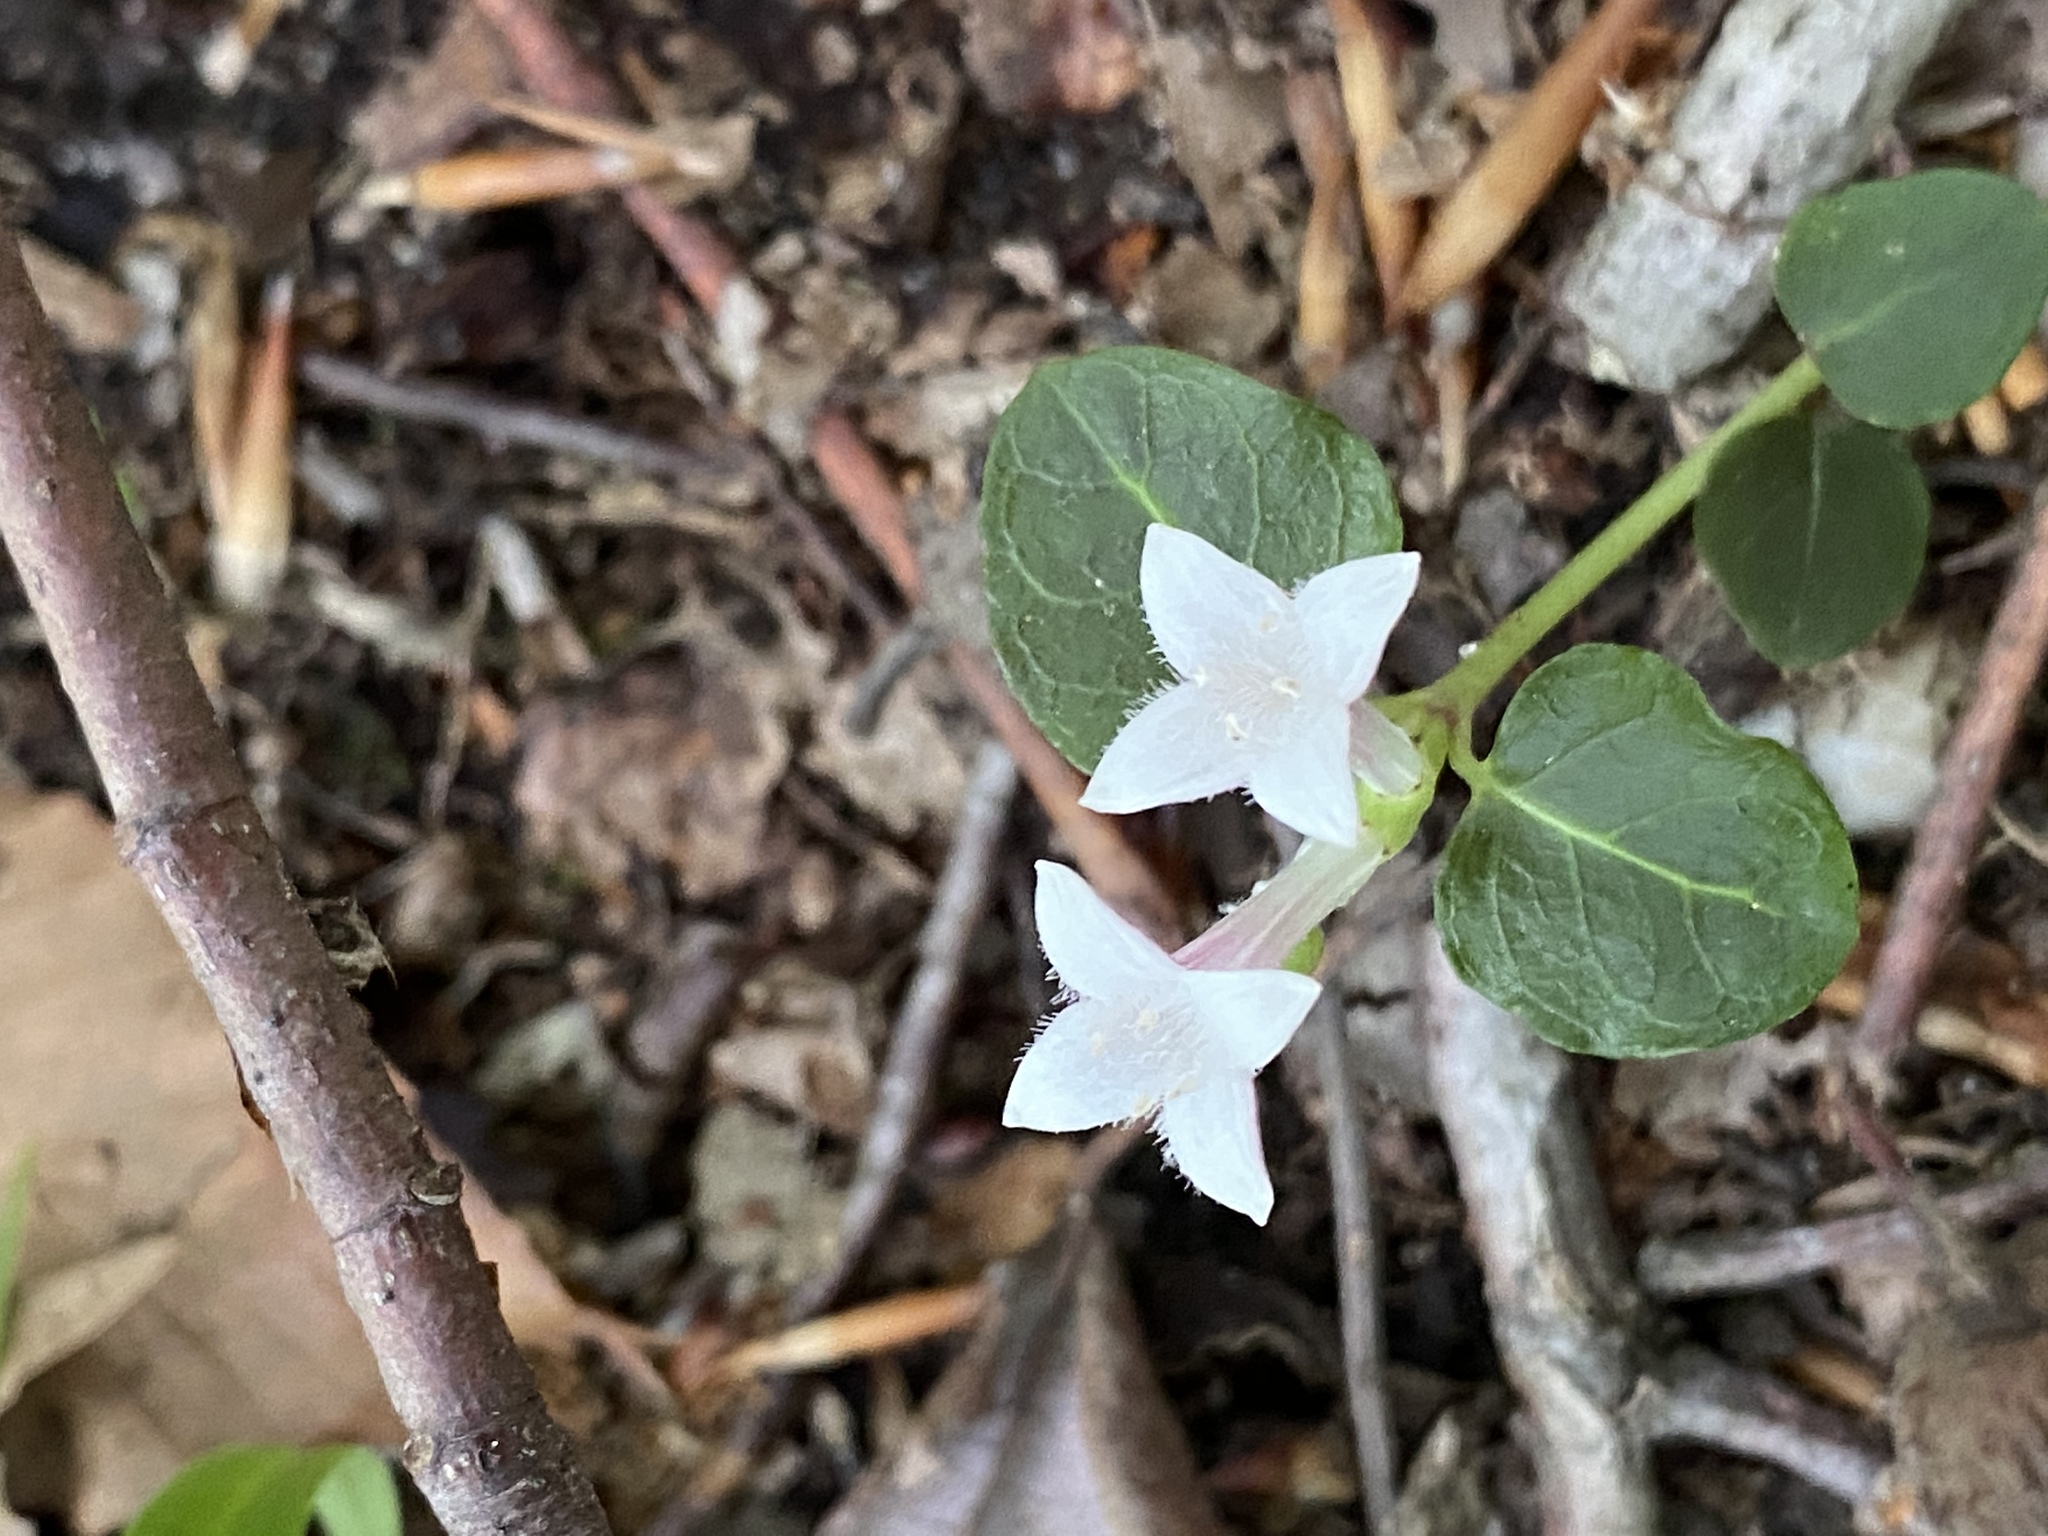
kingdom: Plantae
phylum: Tracheophyta
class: Magnoliopsida
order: Gentianales
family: Rubiaceae
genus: Mitchella
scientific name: Mitchella repens
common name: Partridge-berry
